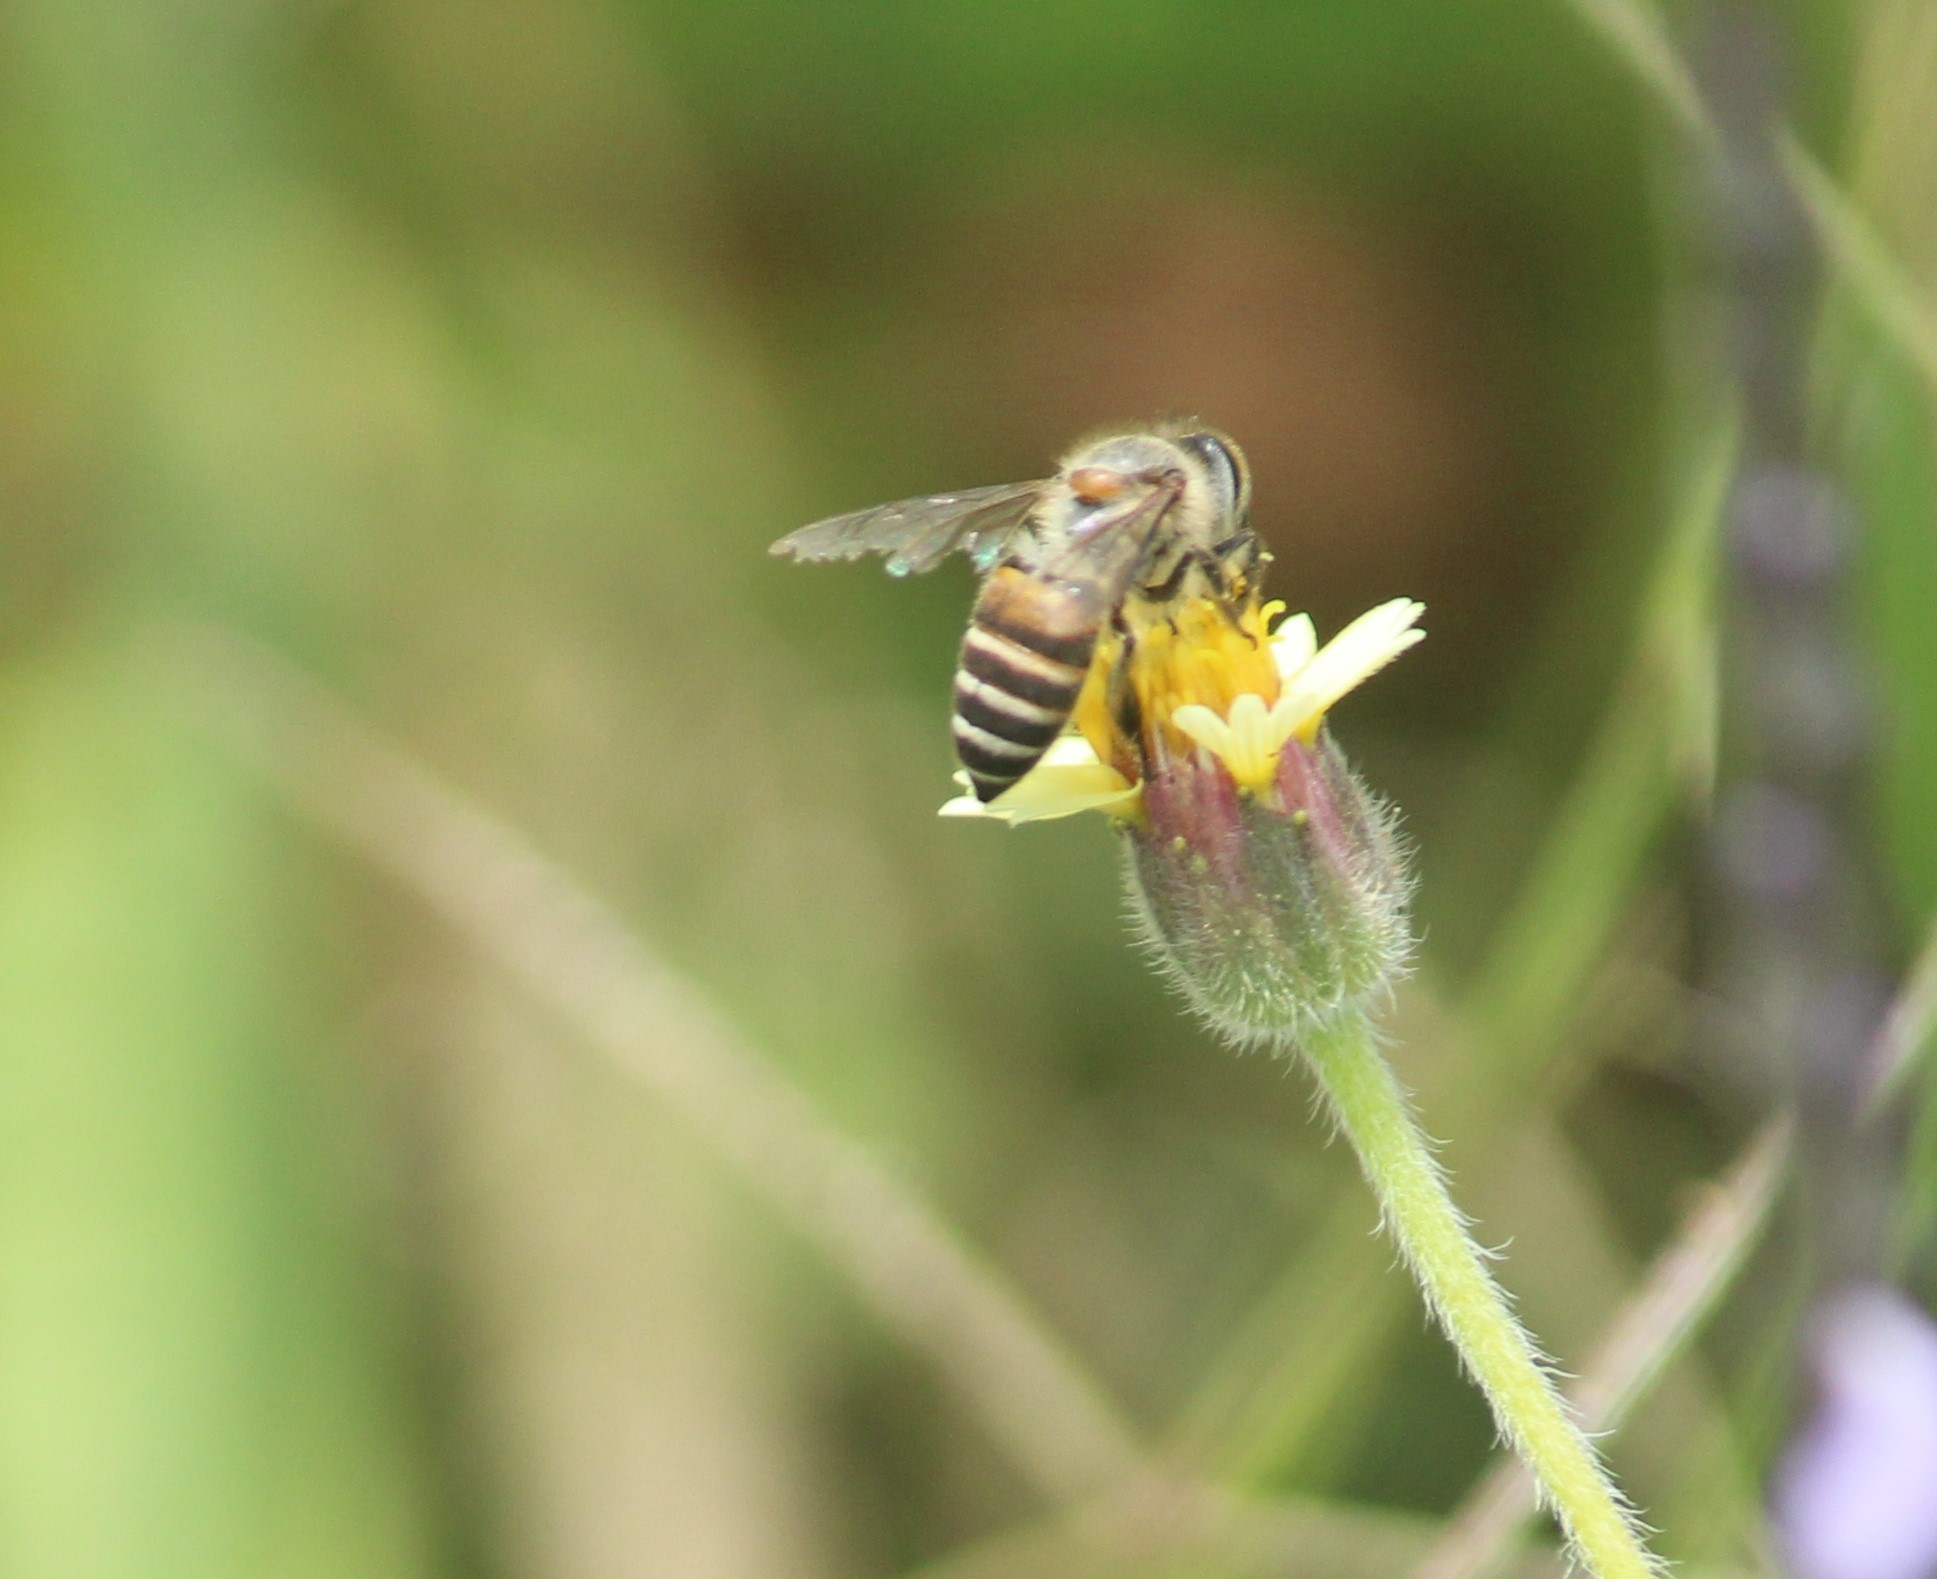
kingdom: Animalia
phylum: Arthropoda
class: Insecta
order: Hymenoptera
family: Apidae
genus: Apis
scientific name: Apis cerana
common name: Honey bee
